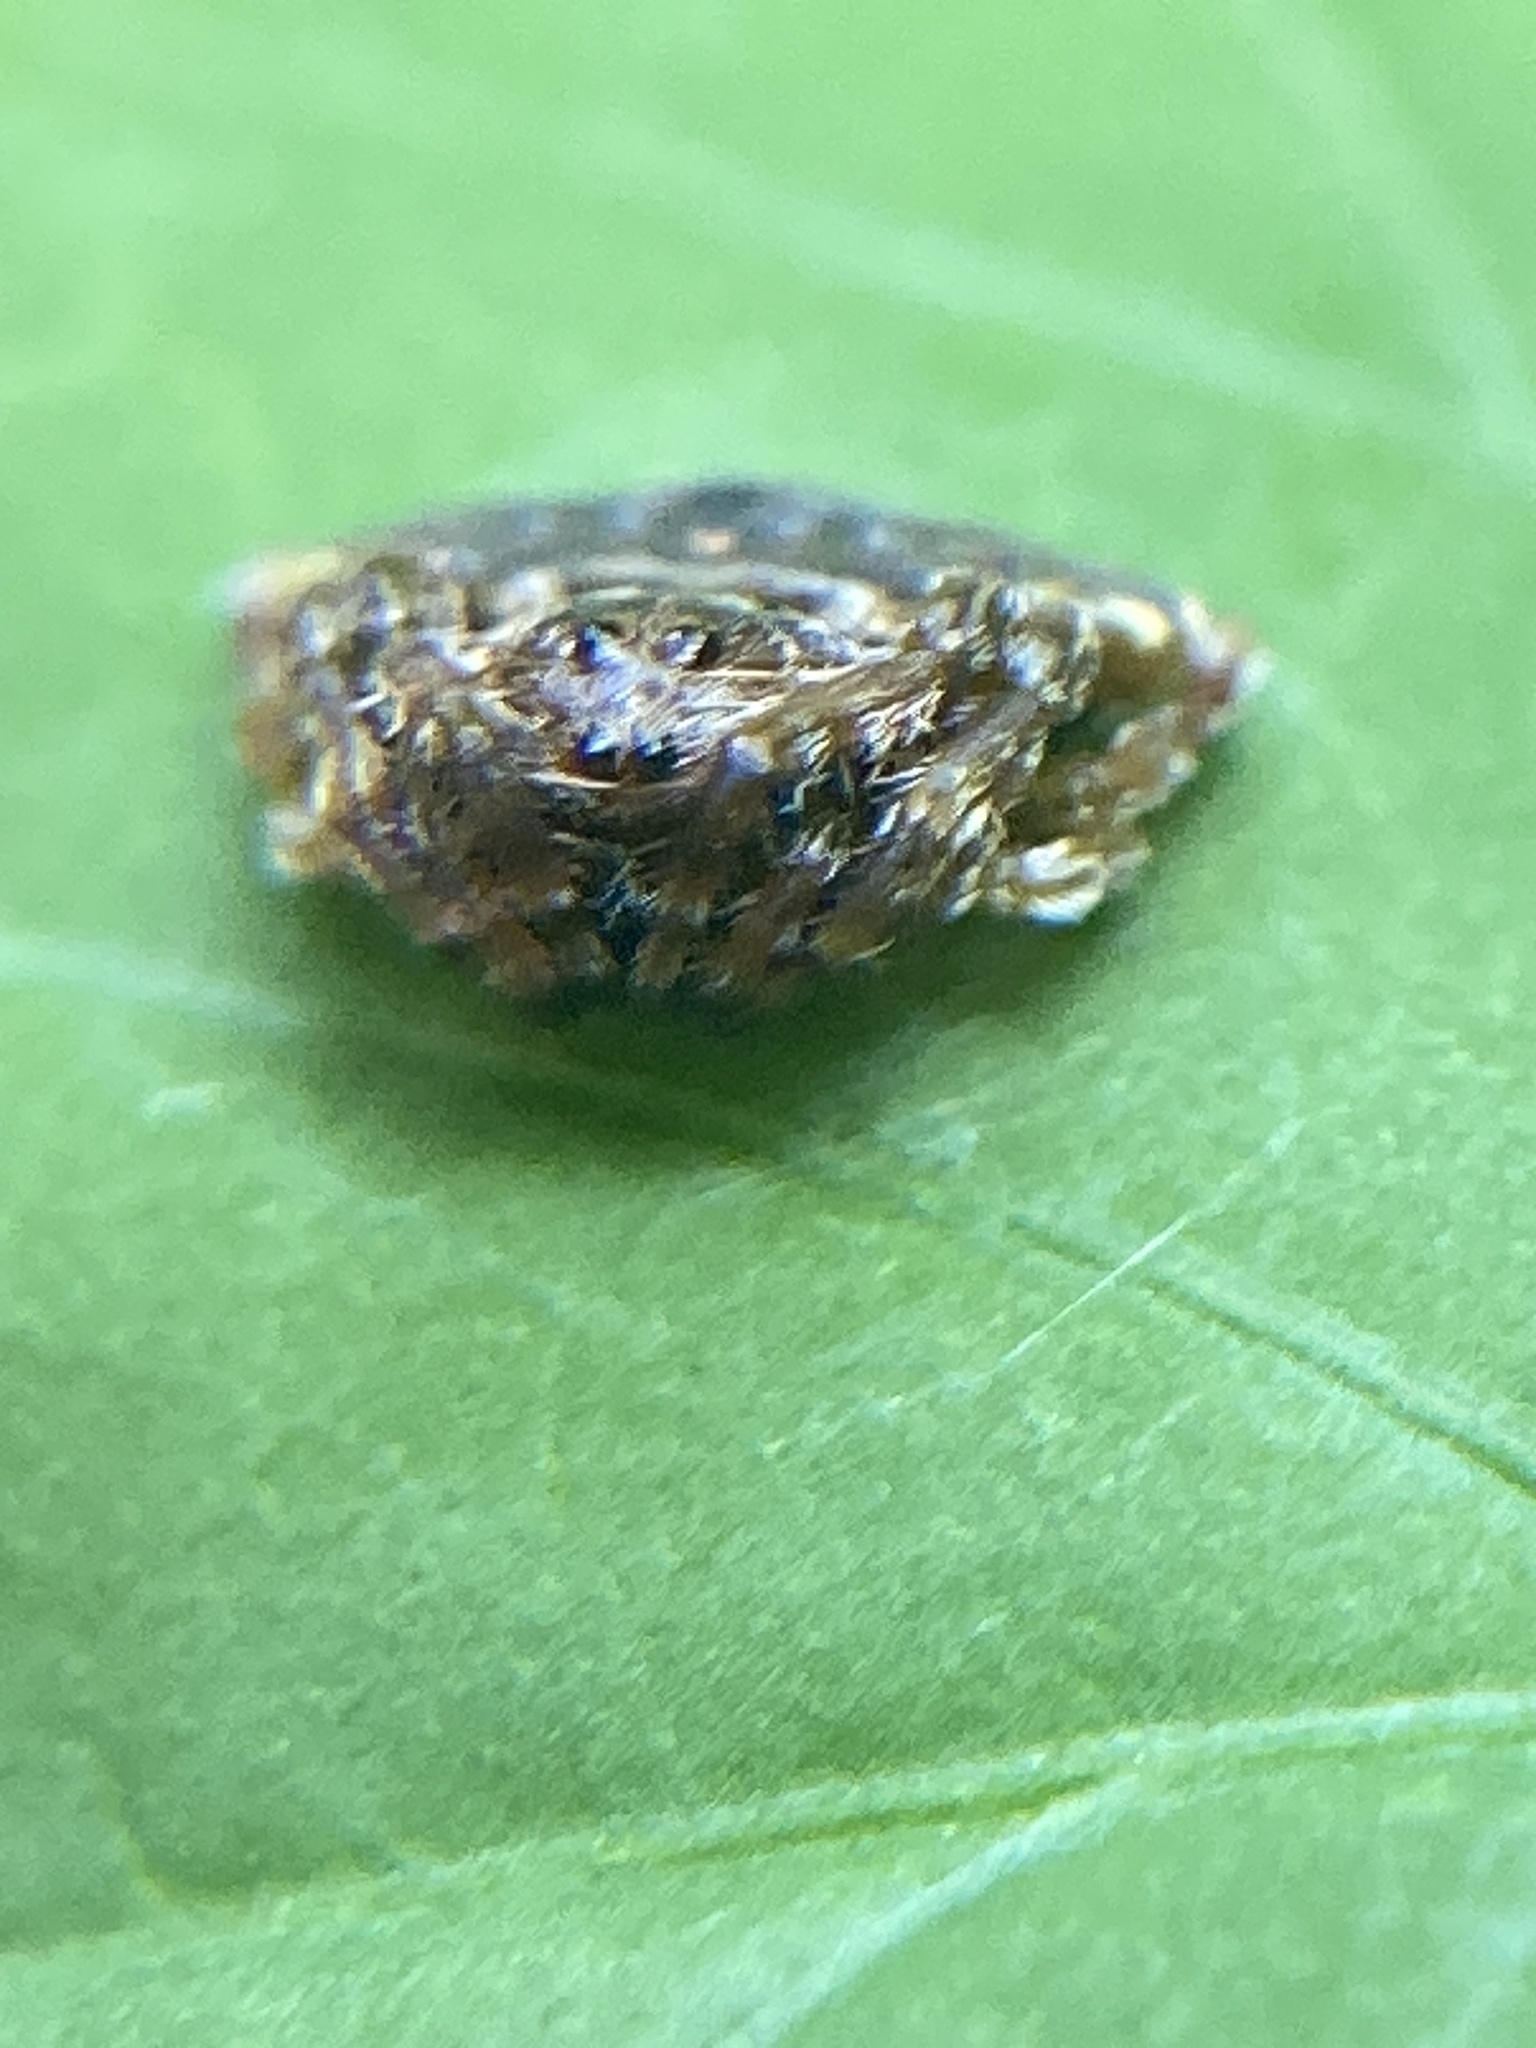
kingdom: Animalia
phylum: Arthropoda
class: Arachnida
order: Araneae
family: Arkyidae
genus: Arkys
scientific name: Arkys speechleyi
